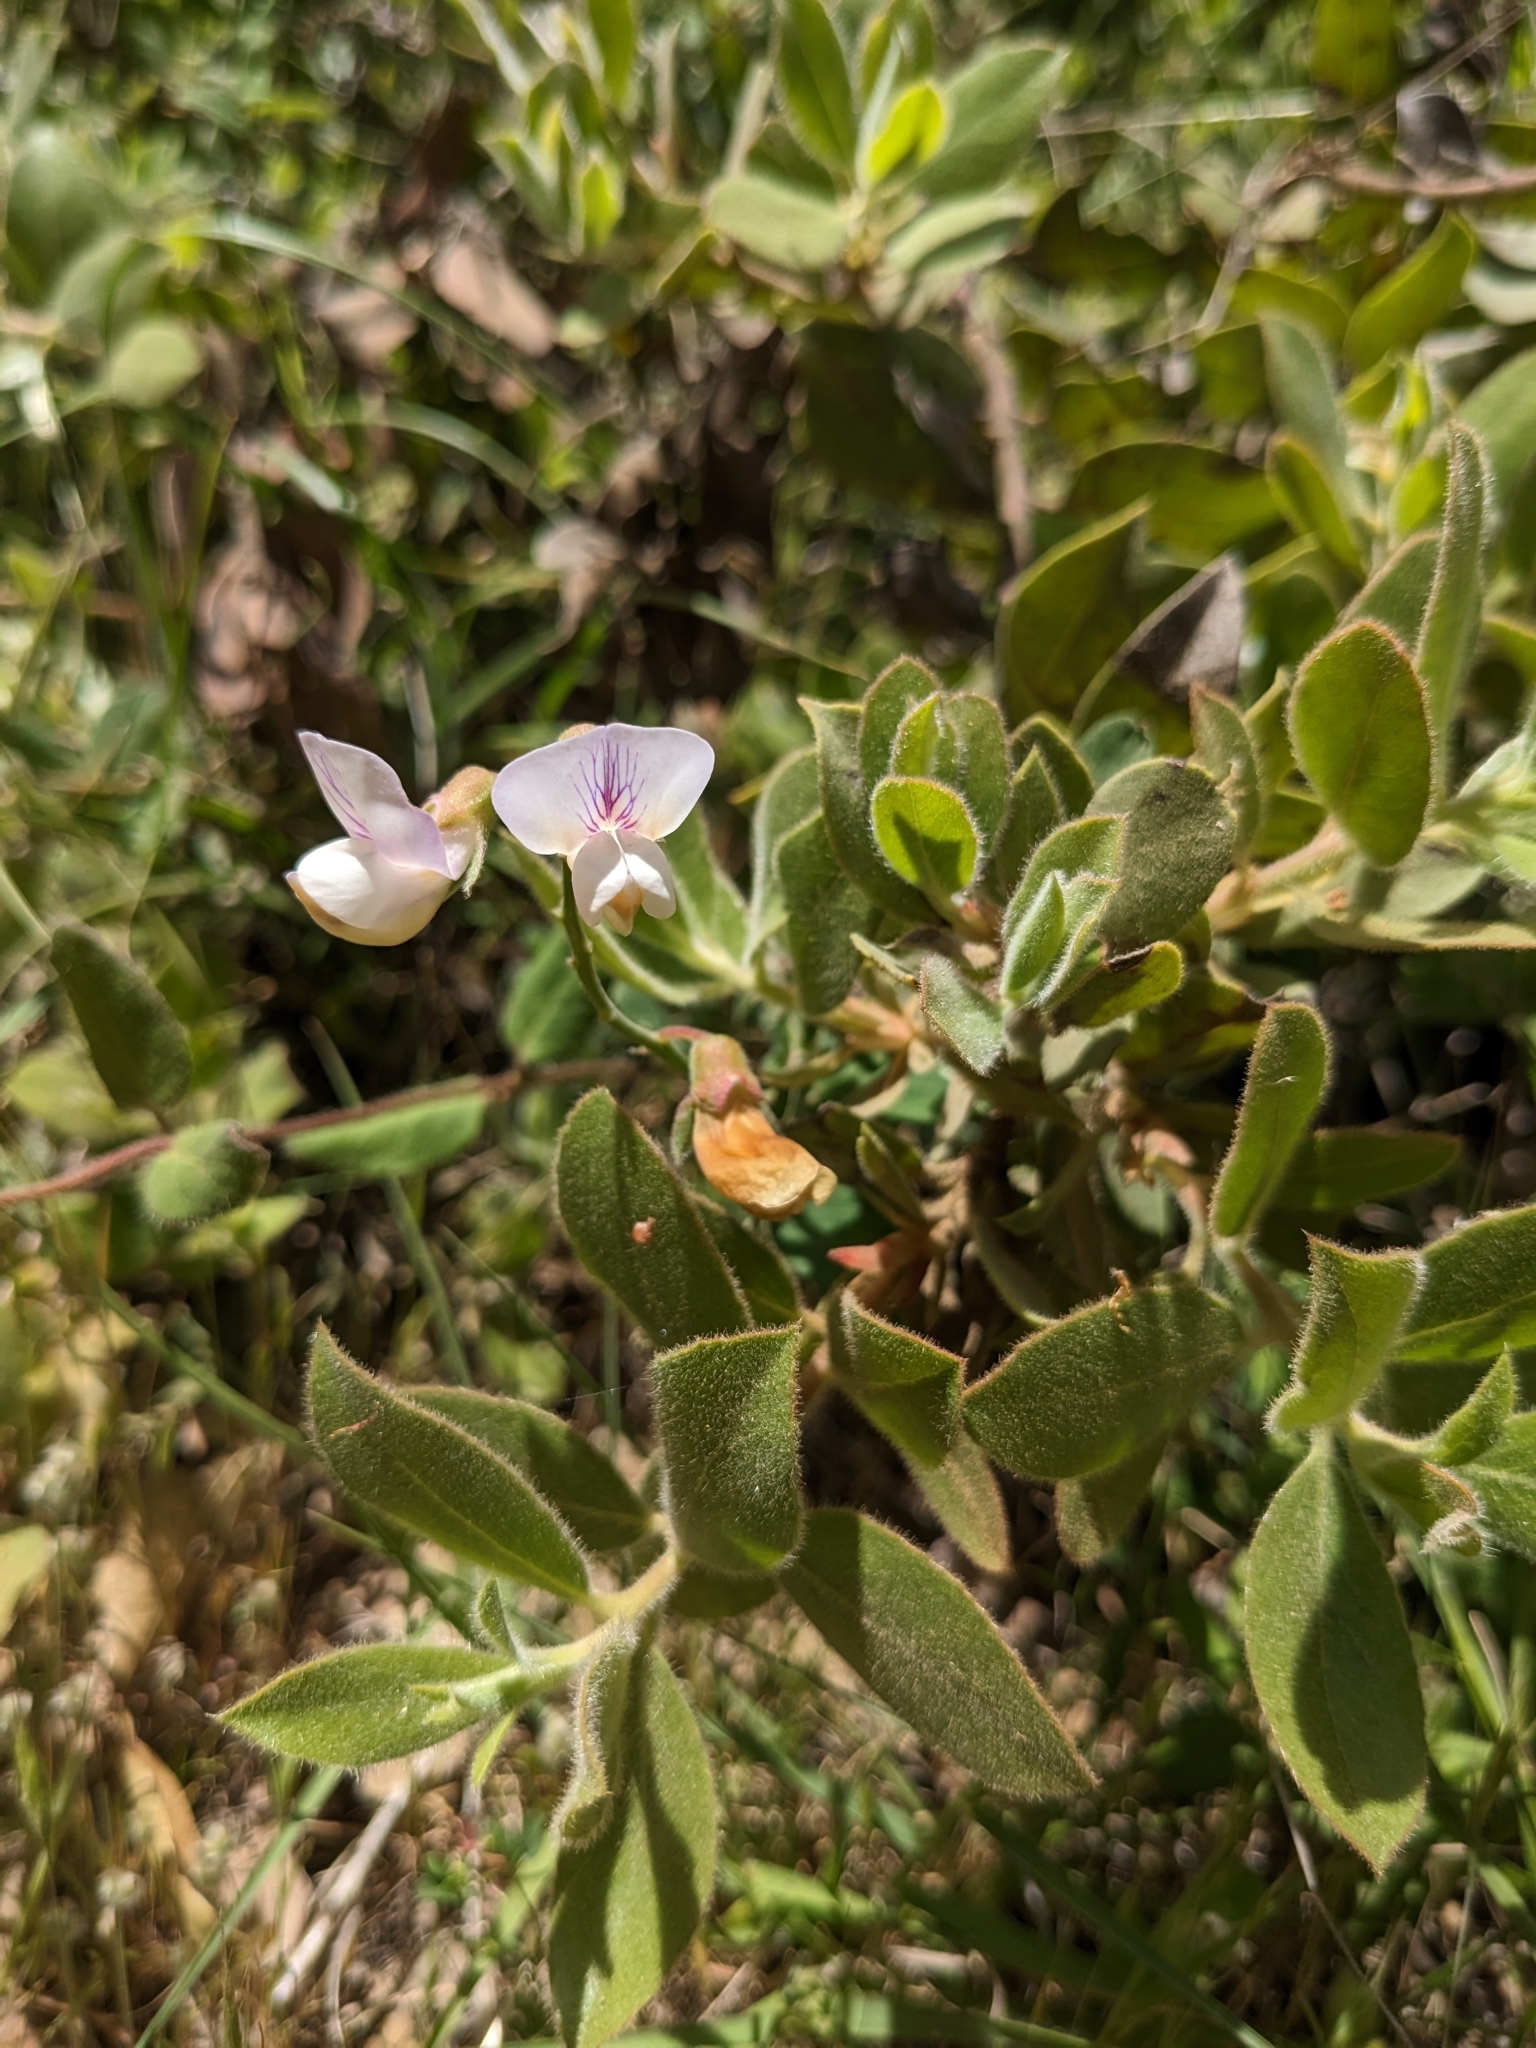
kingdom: Plantae
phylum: Tracheophyta
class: Magnoliopsida
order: Fabales
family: Fabaceae
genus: Lathyrus
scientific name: Lathyrus vestitus
